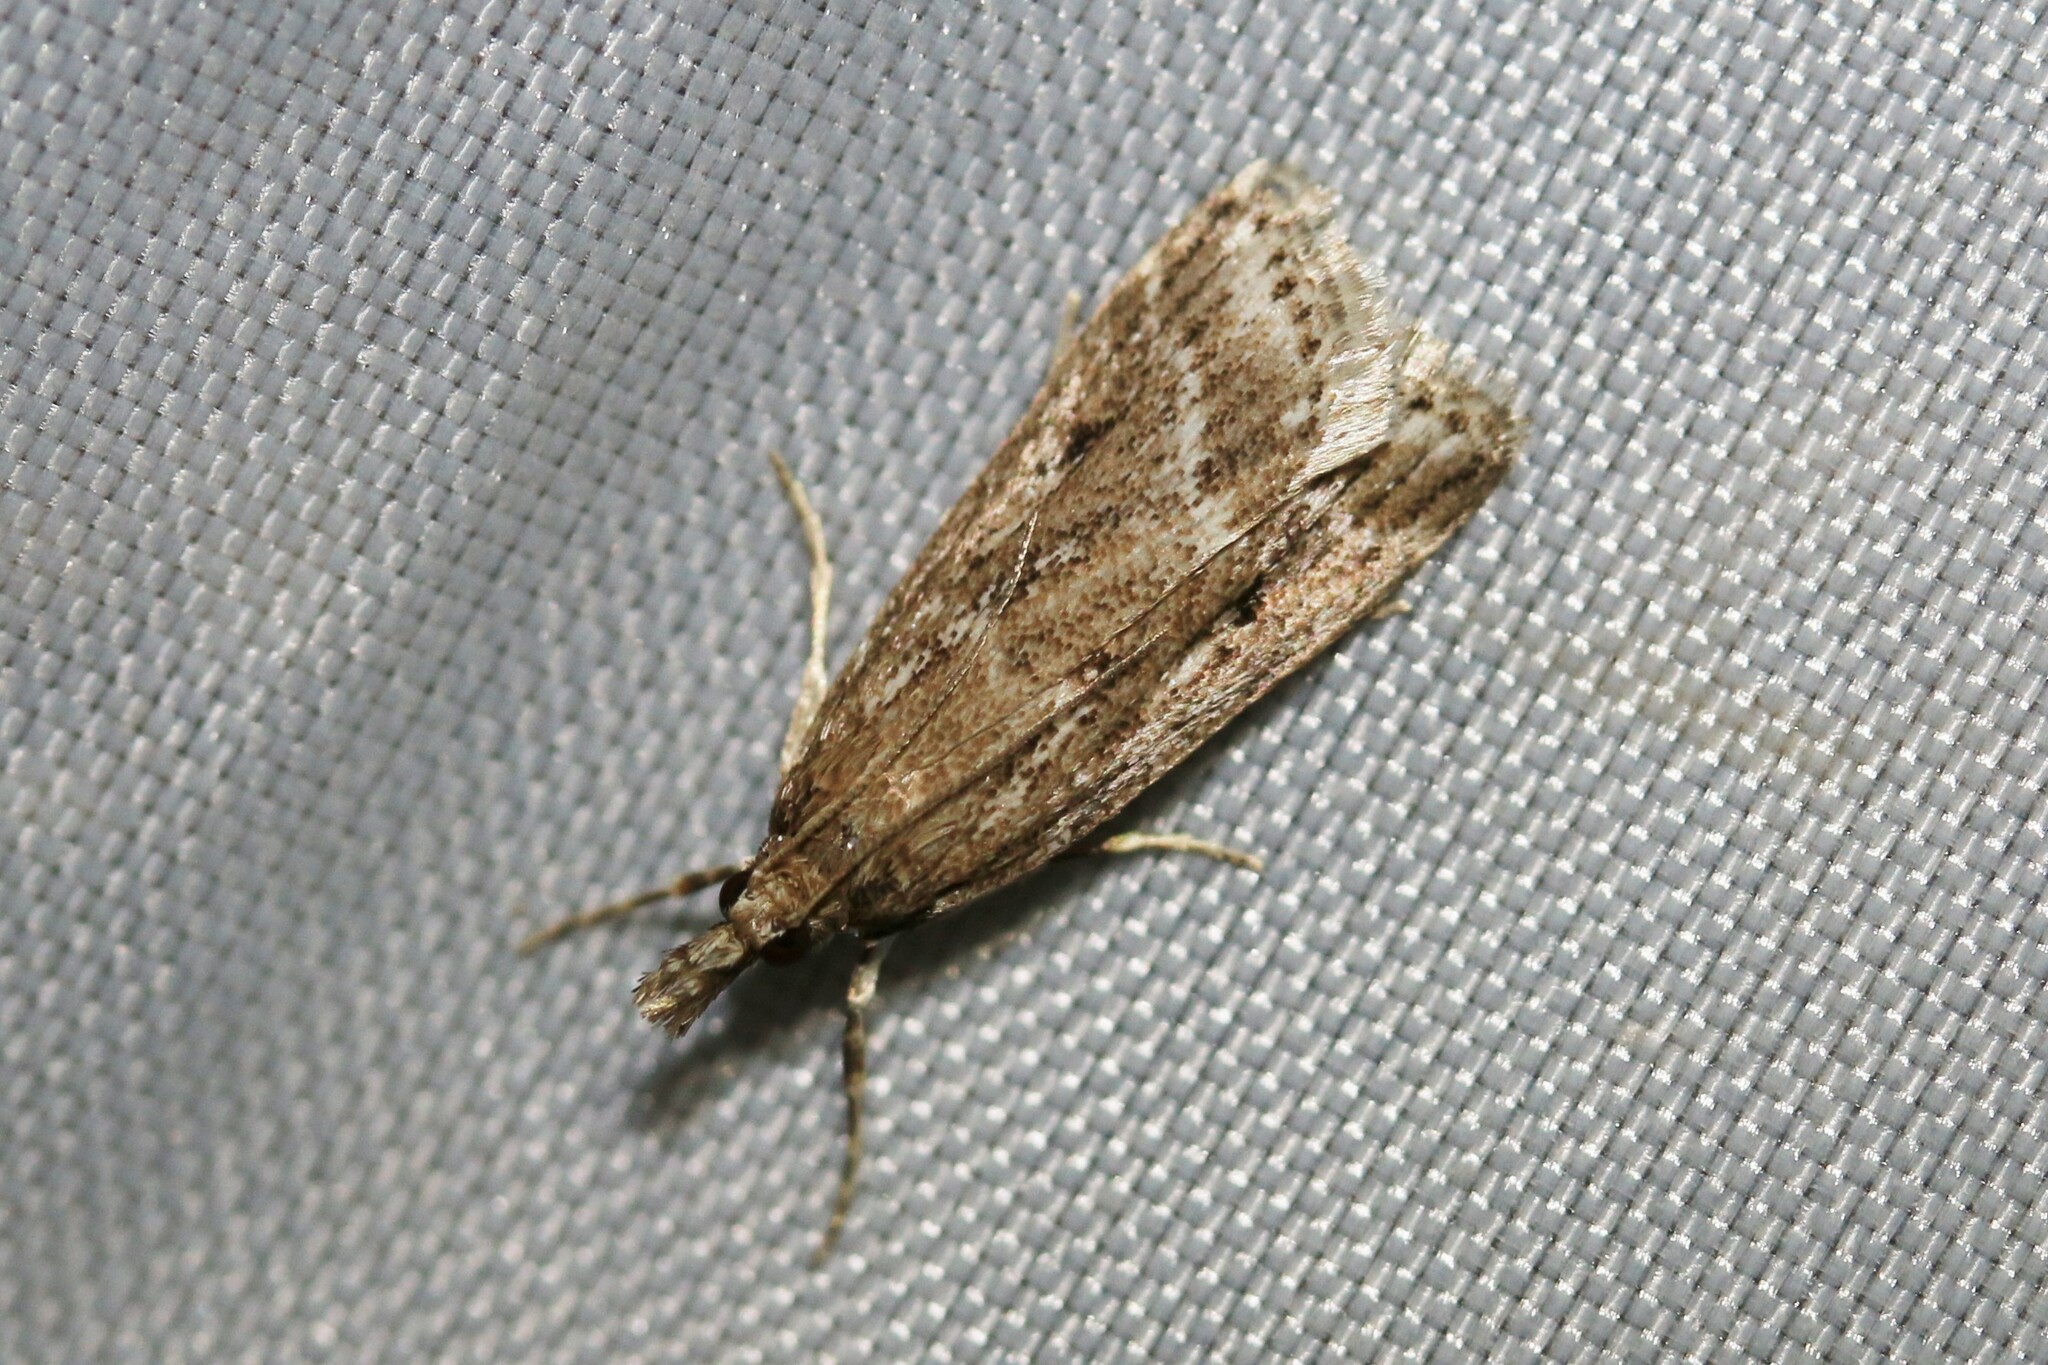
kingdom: Animalia
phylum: Arthropoda
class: Insecta
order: Lepidoptera
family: Crambidae
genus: Eudonia
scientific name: Eudonia truncicolella
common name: Ground-moss grey
